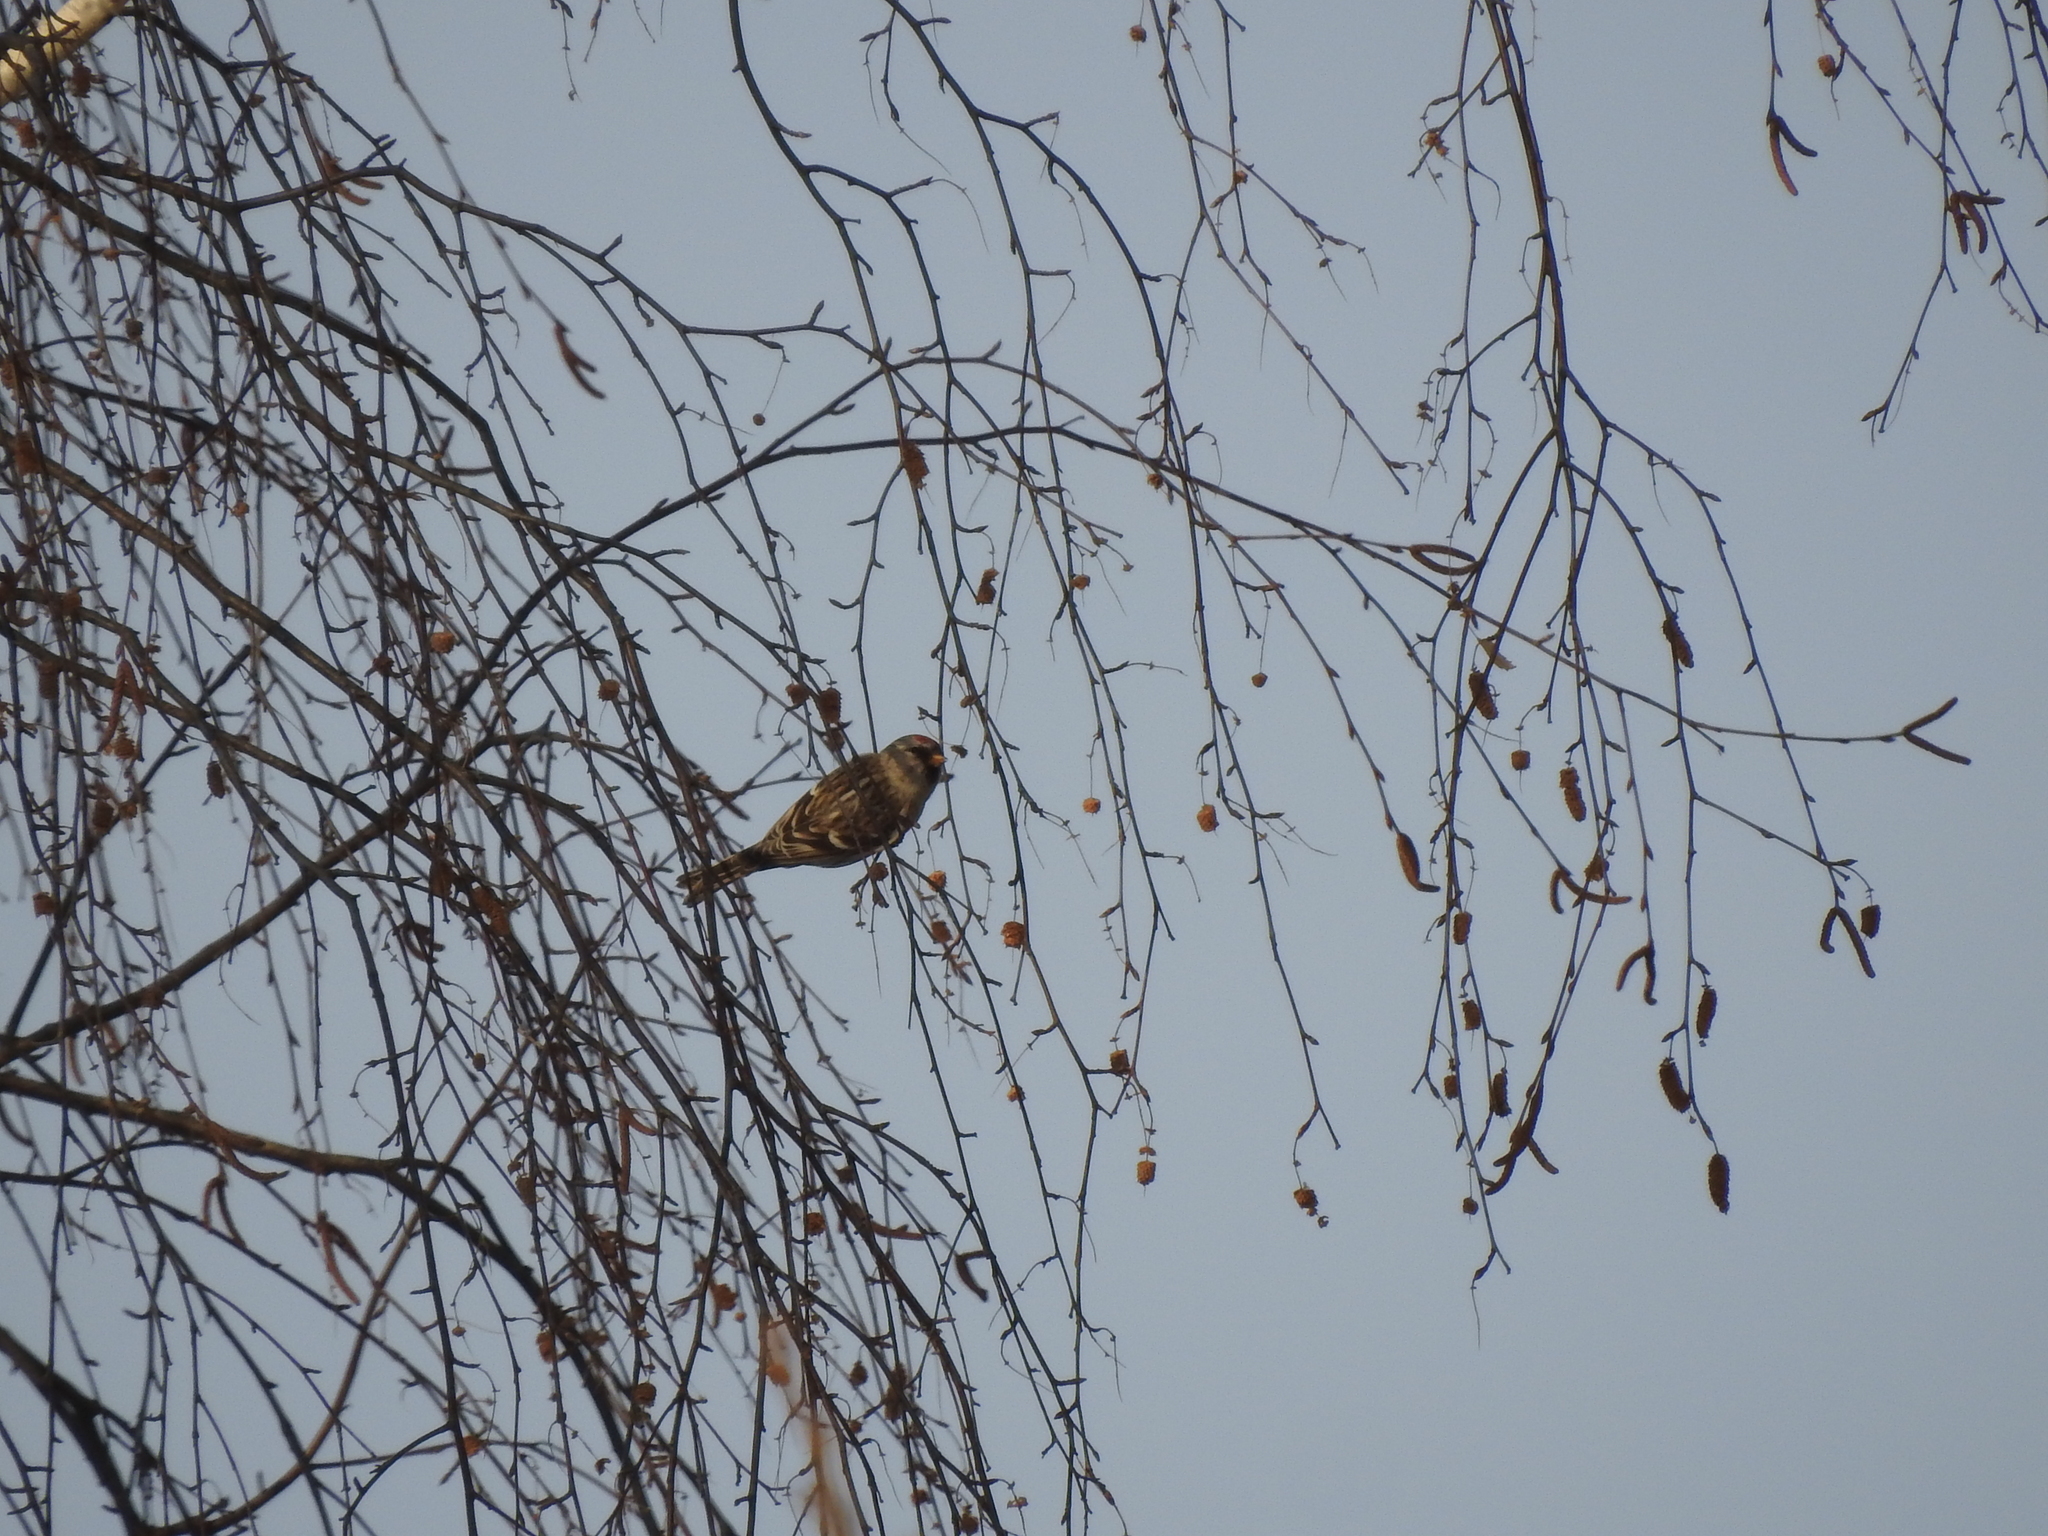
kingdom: Animalia
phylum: Chordata
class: Aves
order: Passeriformes
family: Fringillidae
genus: Acanthis
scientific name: Acanthis flammea
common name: Common redpoll
